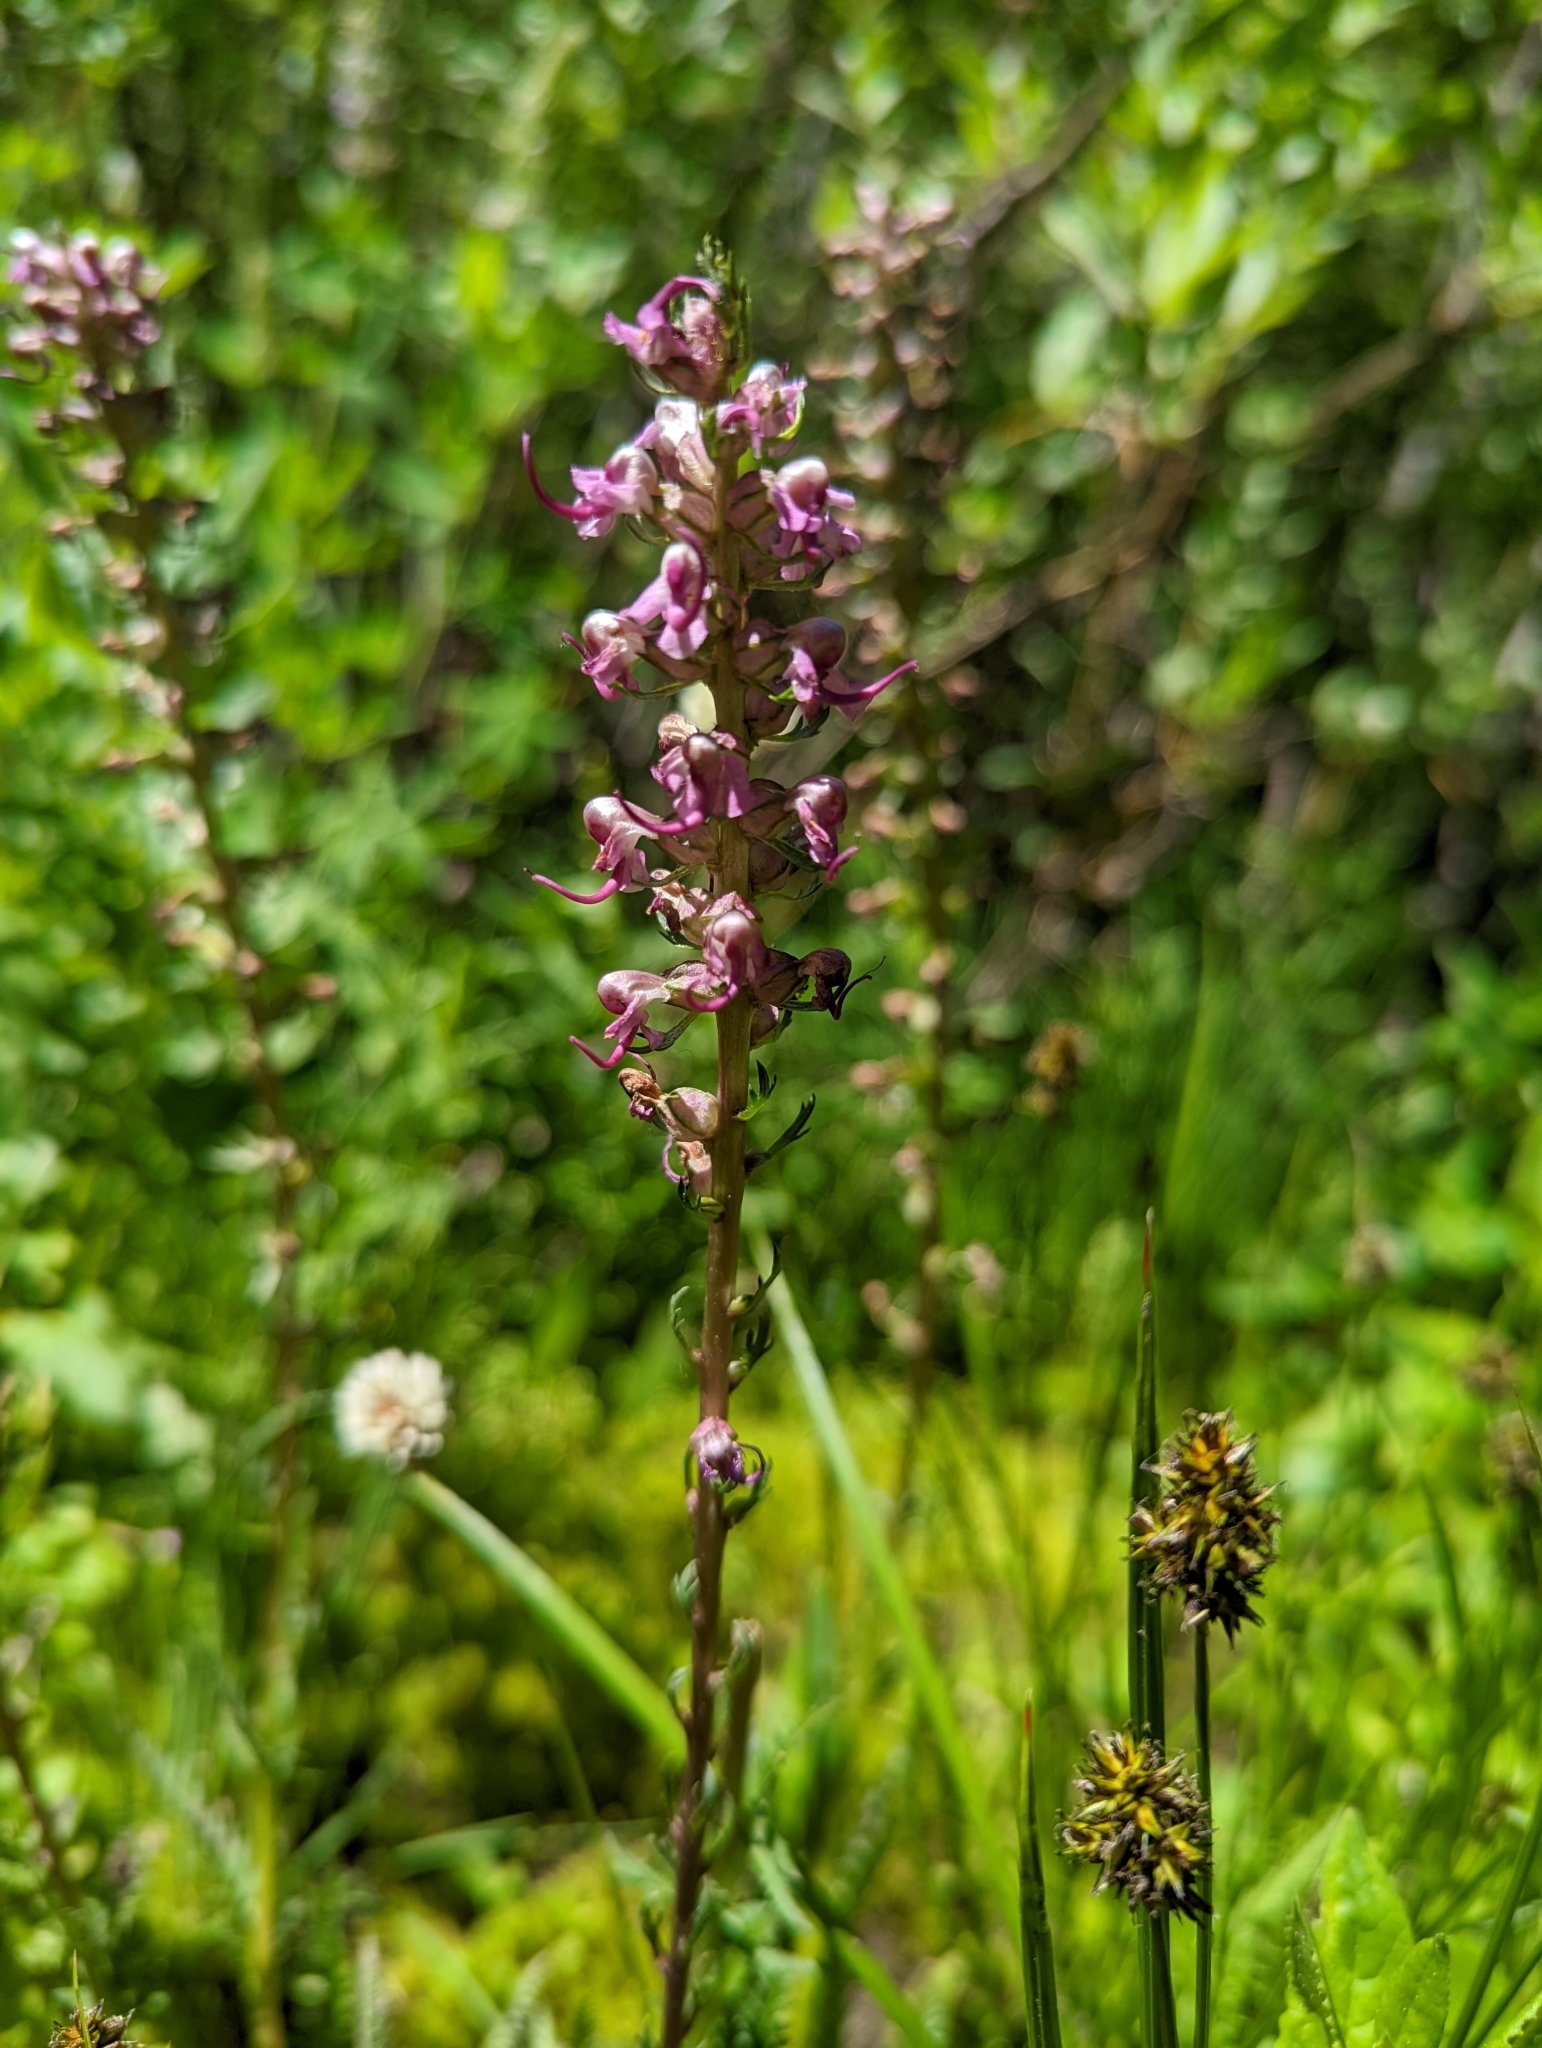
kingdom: Plantae
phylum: Tracheophyta
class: Magnoliopsida
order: Lamiales
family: Orobanchaceae
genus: Pedicularis
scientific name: Pedicularis groenlandica
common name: Elephant's-head
